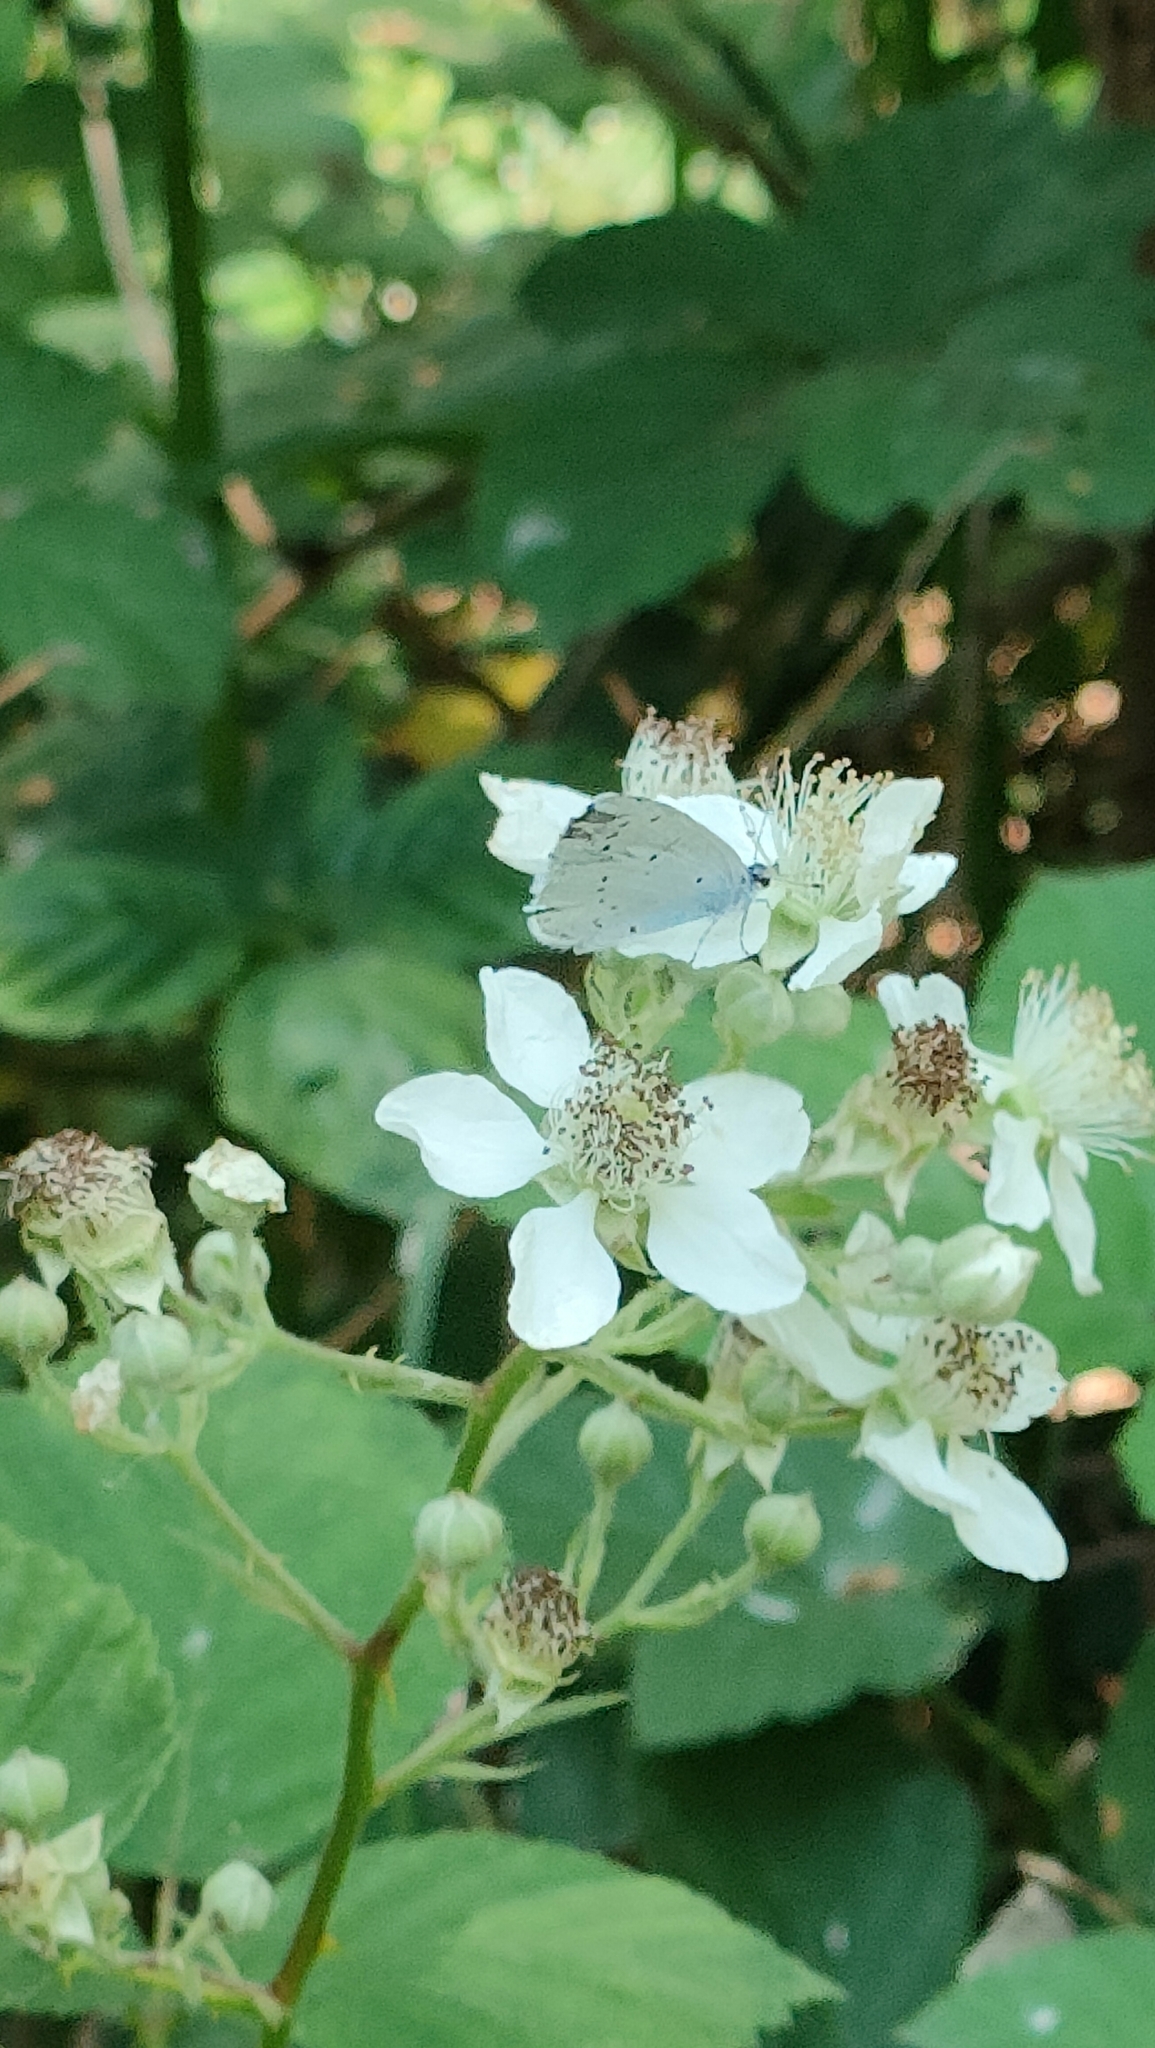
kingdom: Animalia
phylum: Arthropoda
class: Insecta
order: Lepidoptera
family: Lycaenidae
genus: Celastrina
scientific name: Celastrina argiolus
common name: Holly blue
